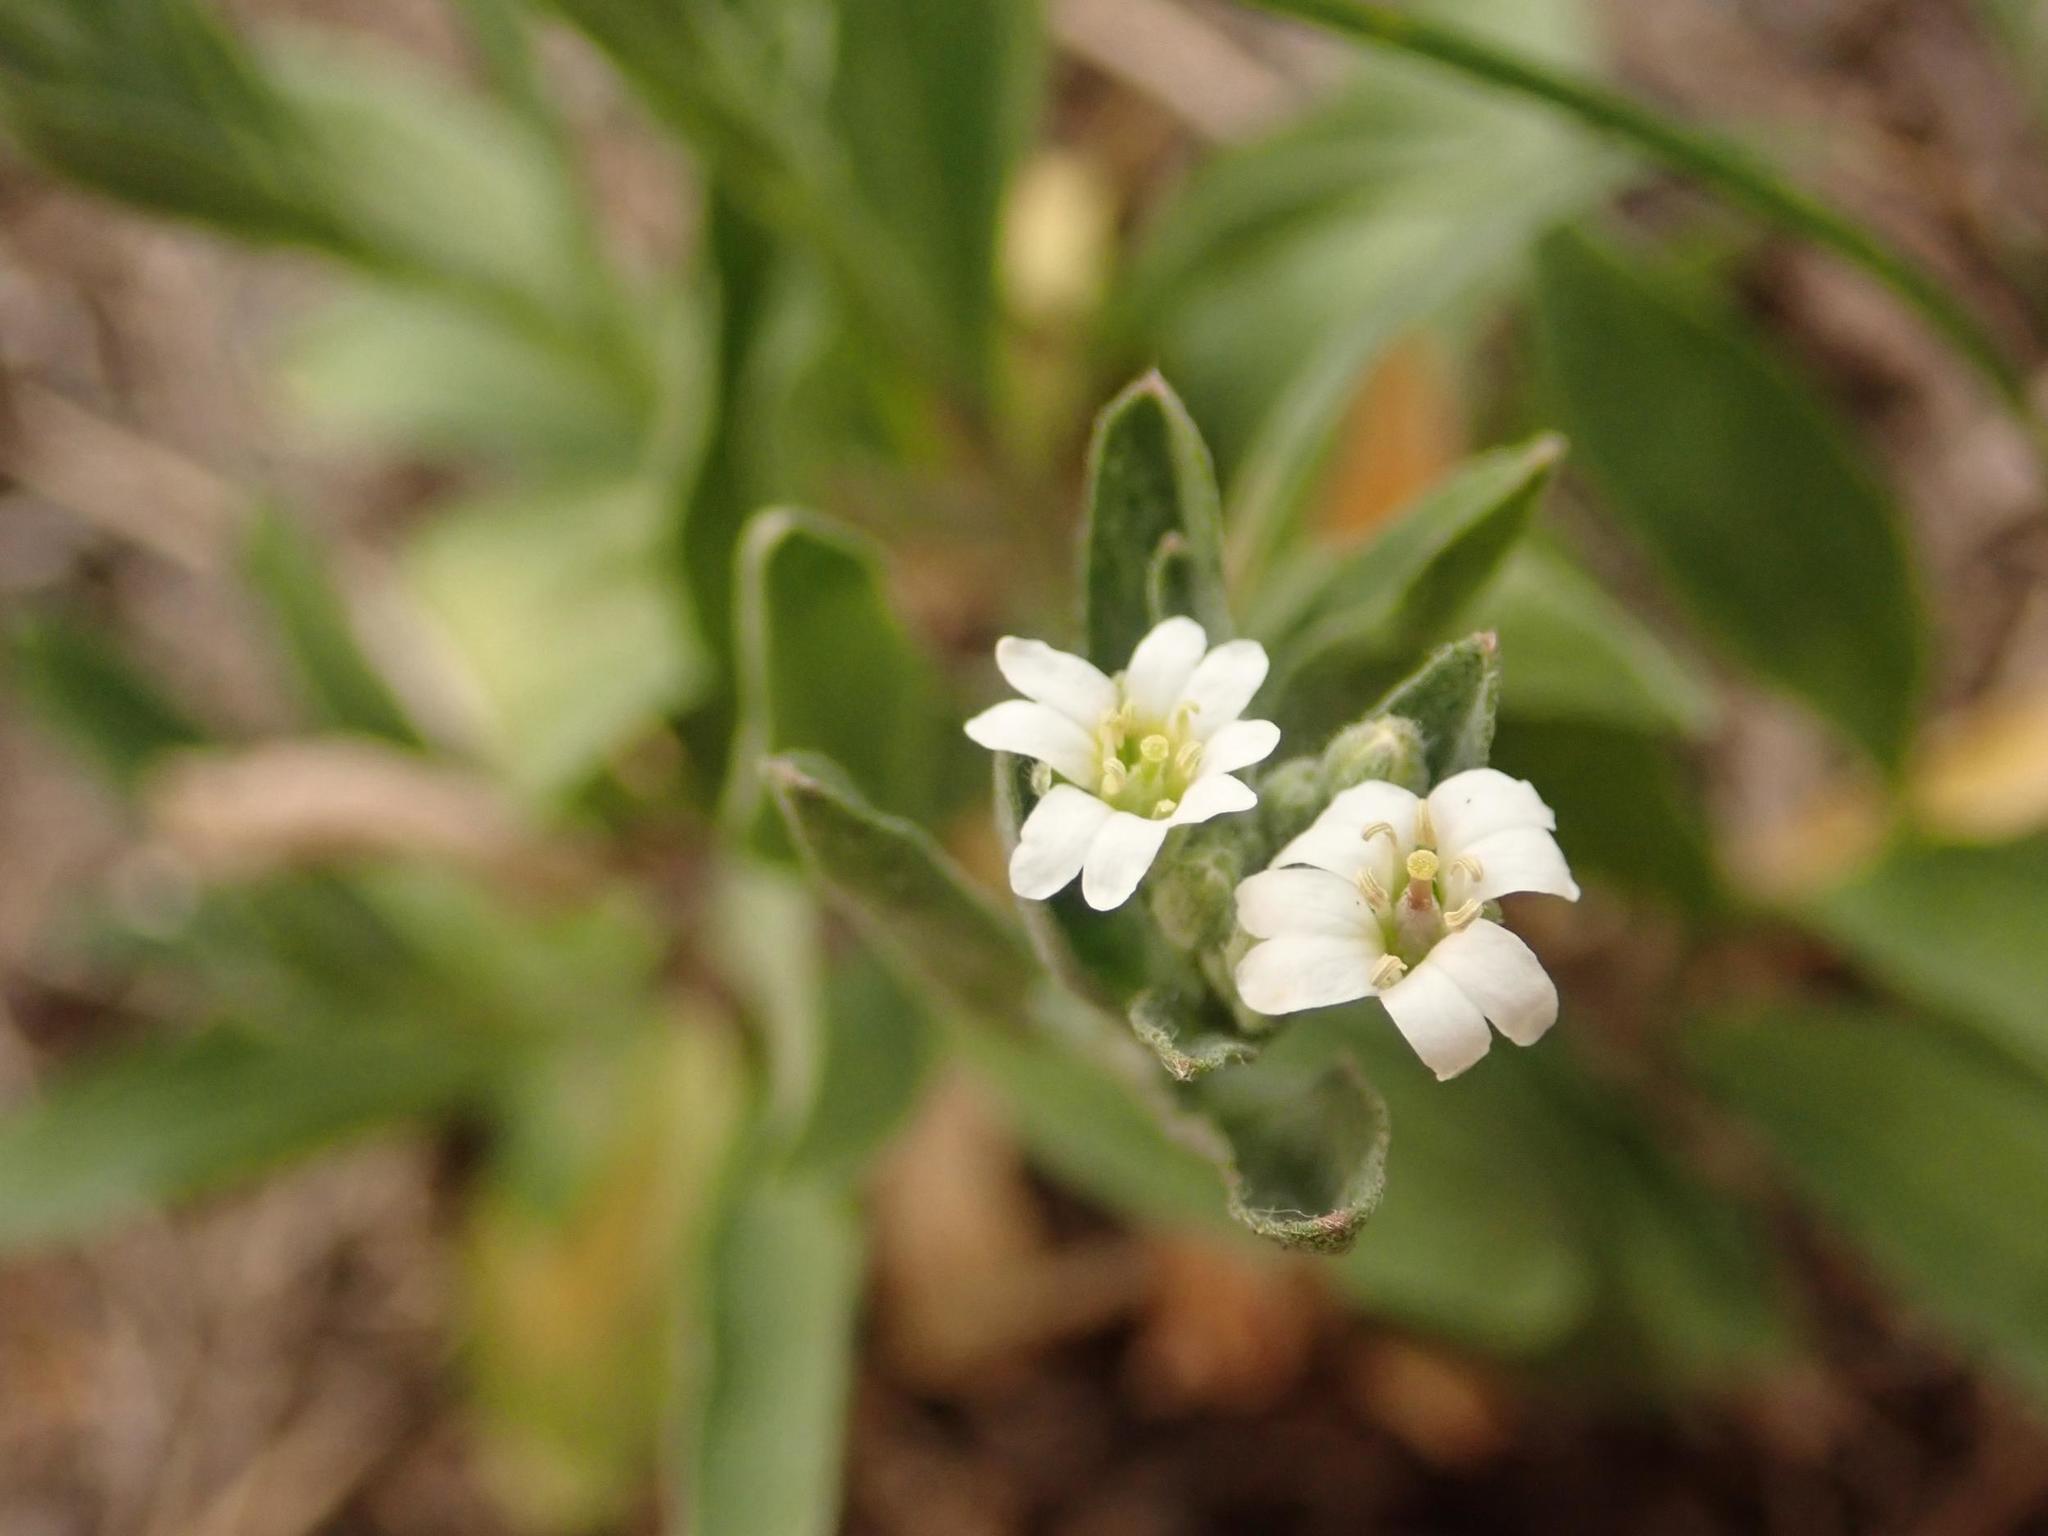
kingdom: Plantae
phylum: Tracheophyta
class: Magnoliopsida
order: Brassicales
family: Brassicaceae
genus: Berteroa
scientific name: Berteroa incana
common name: Hoary alison
